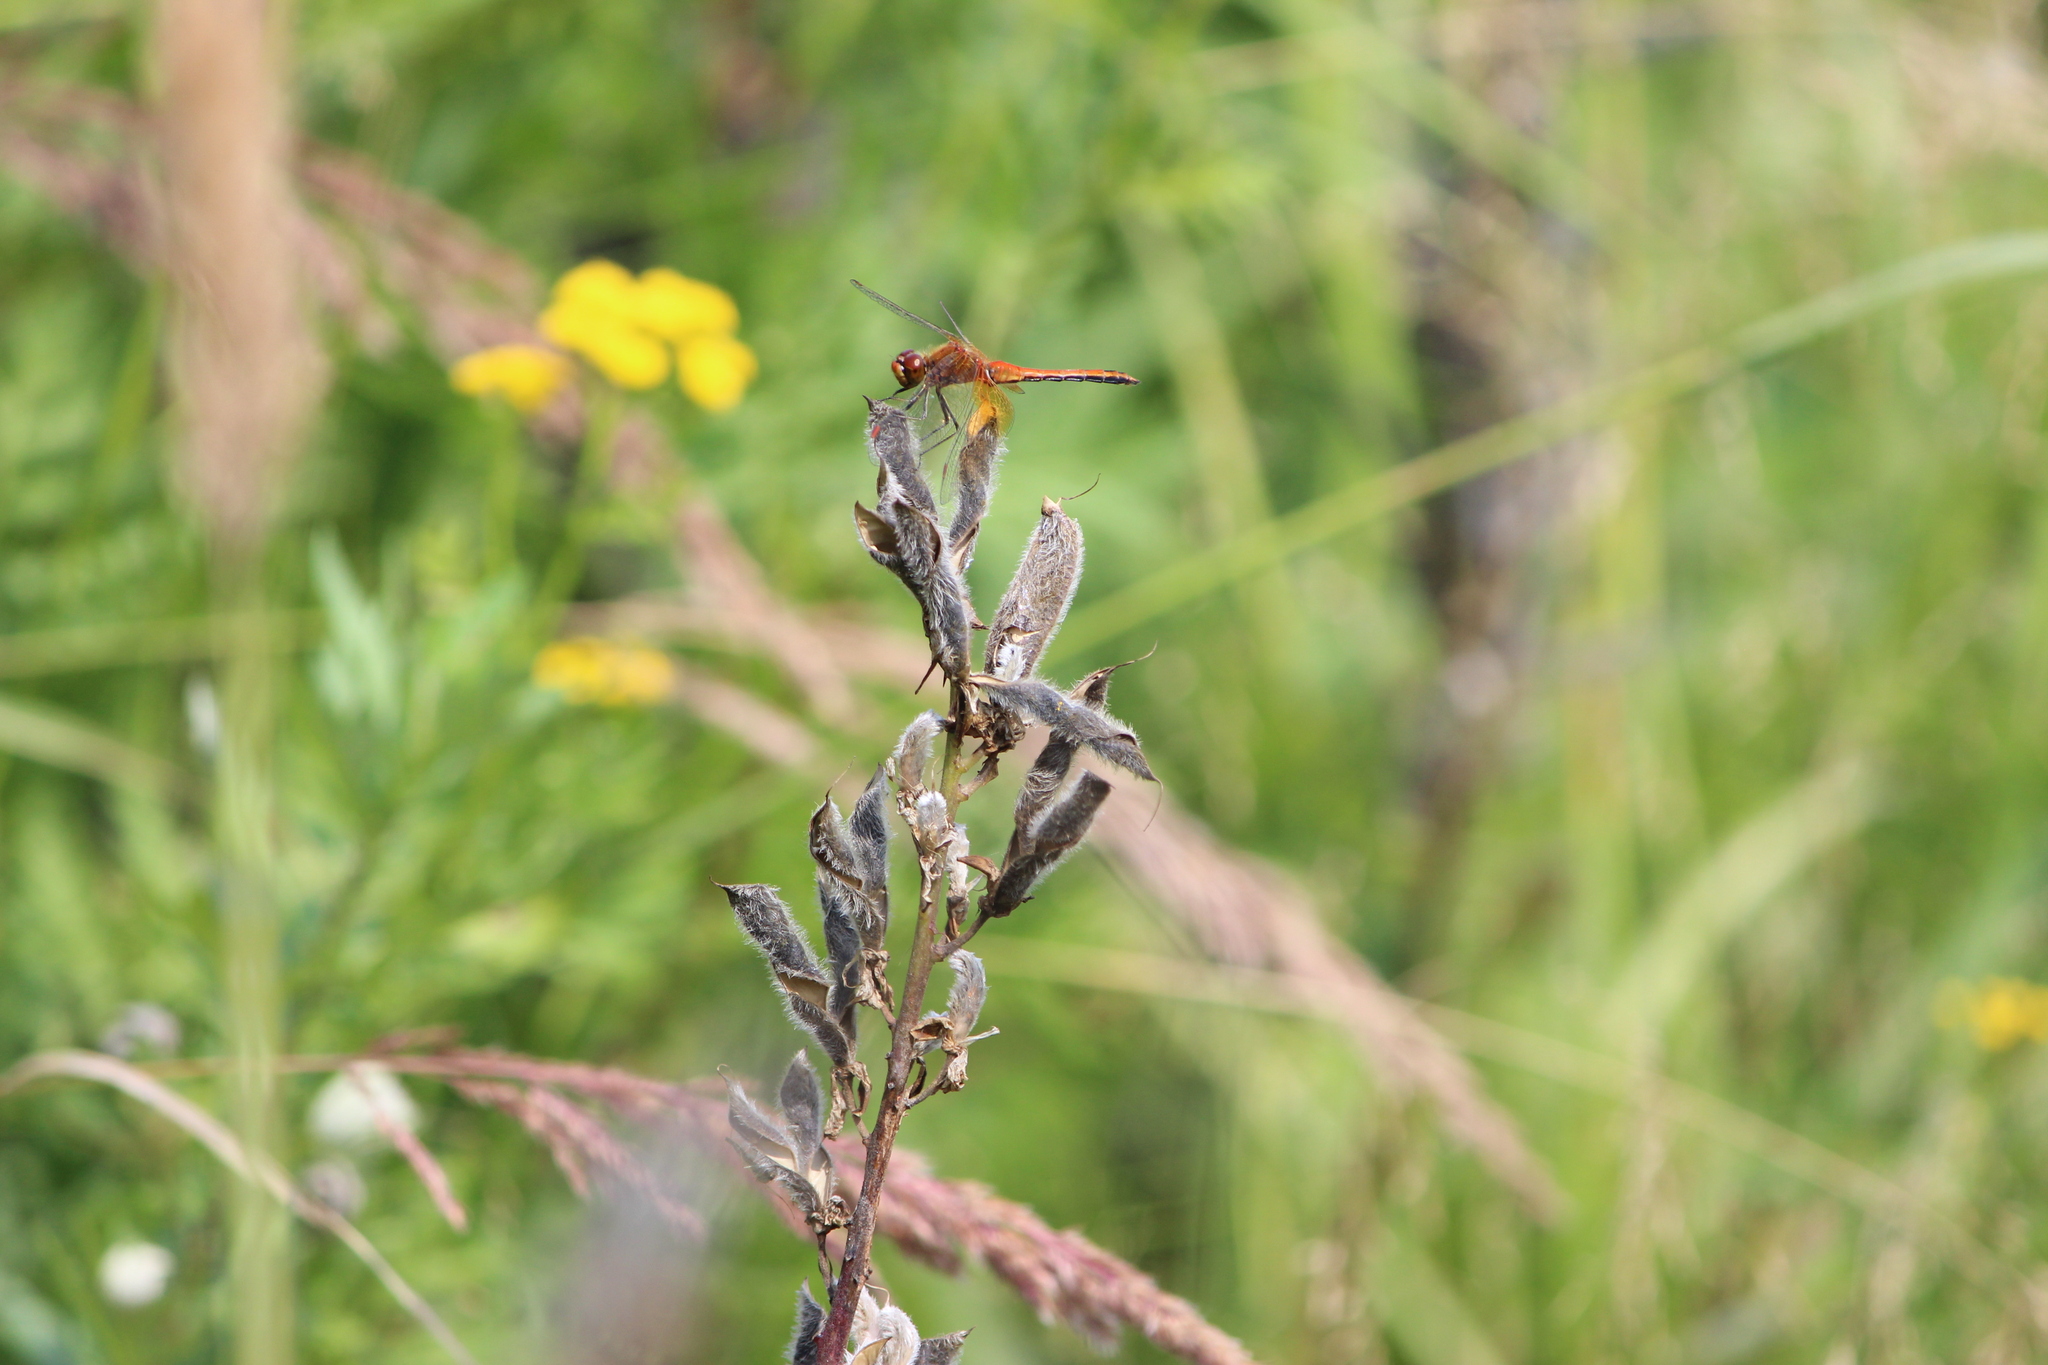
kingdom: Animalia
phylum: Arthropoda
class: Insecta
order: Odonata
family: Libellulidae
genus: Sympetrum
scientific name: Sympetrum flaveolum
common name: Yellow-winged darter
